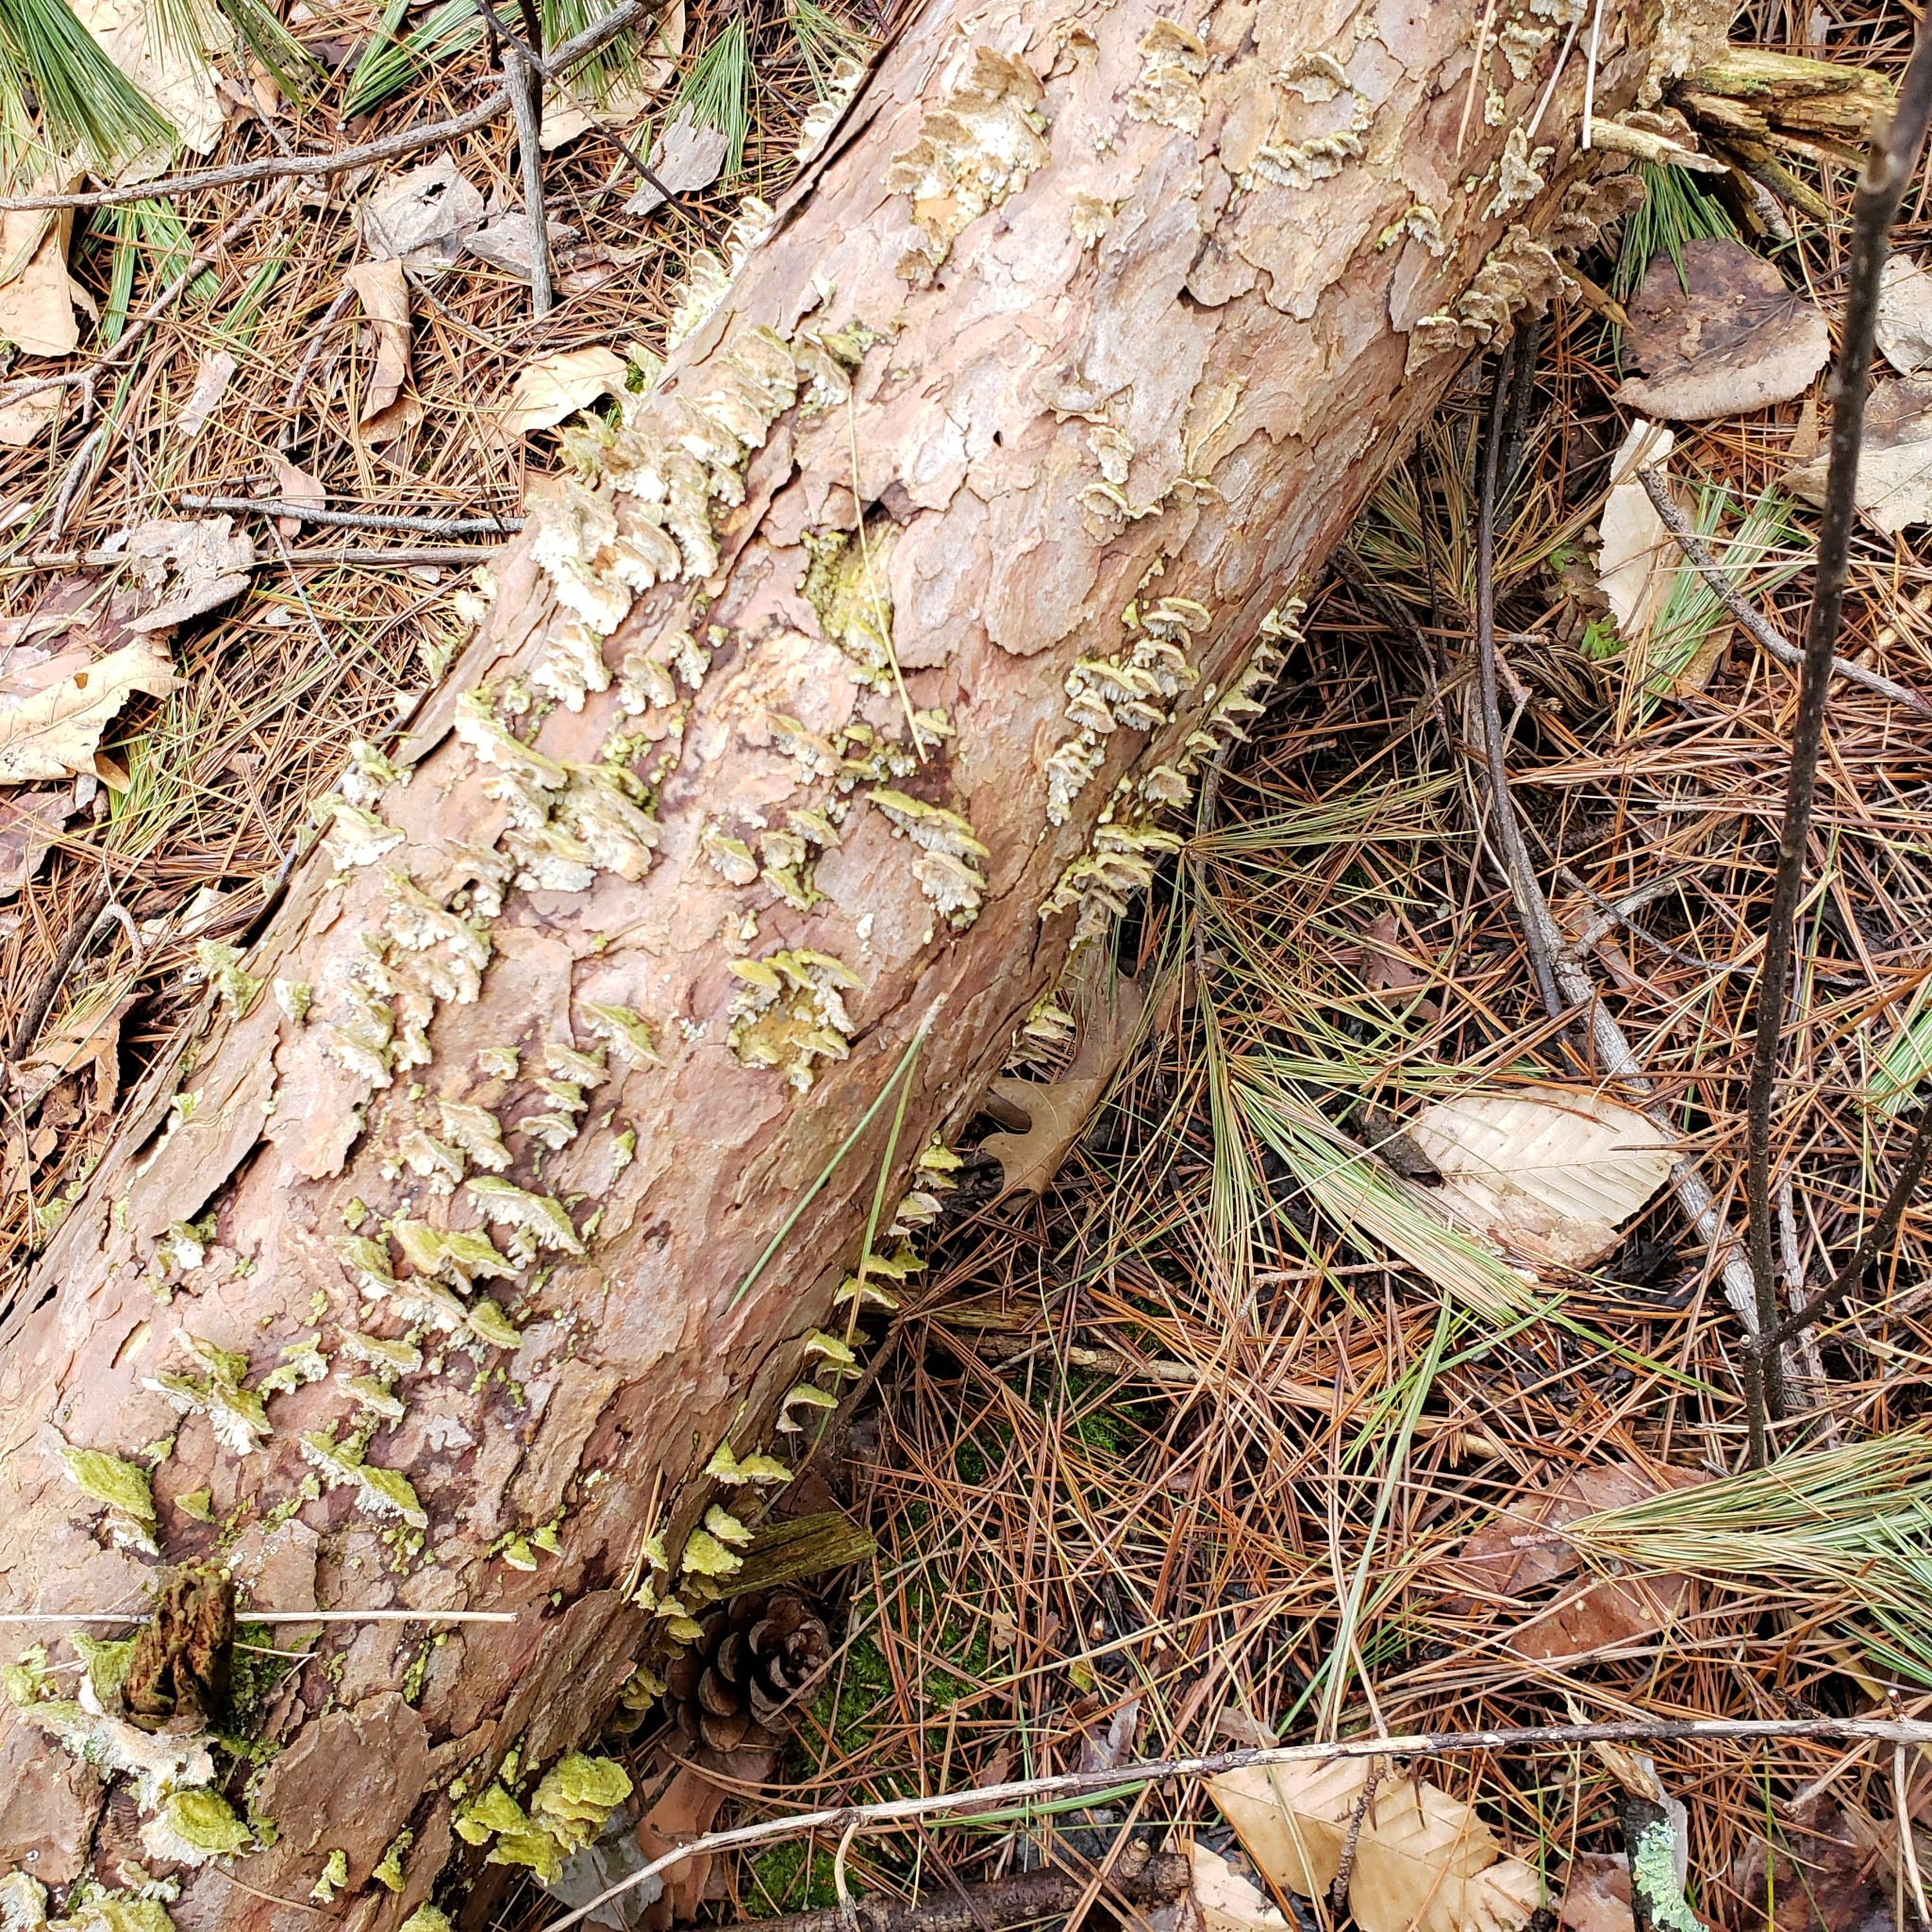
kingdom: Fungi
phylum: Basidiomycota
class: Agaricomycetes
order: Hymenochaetales
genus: Trichaptum
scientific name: Trichaptum abietinum
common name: Purplepore bracket
